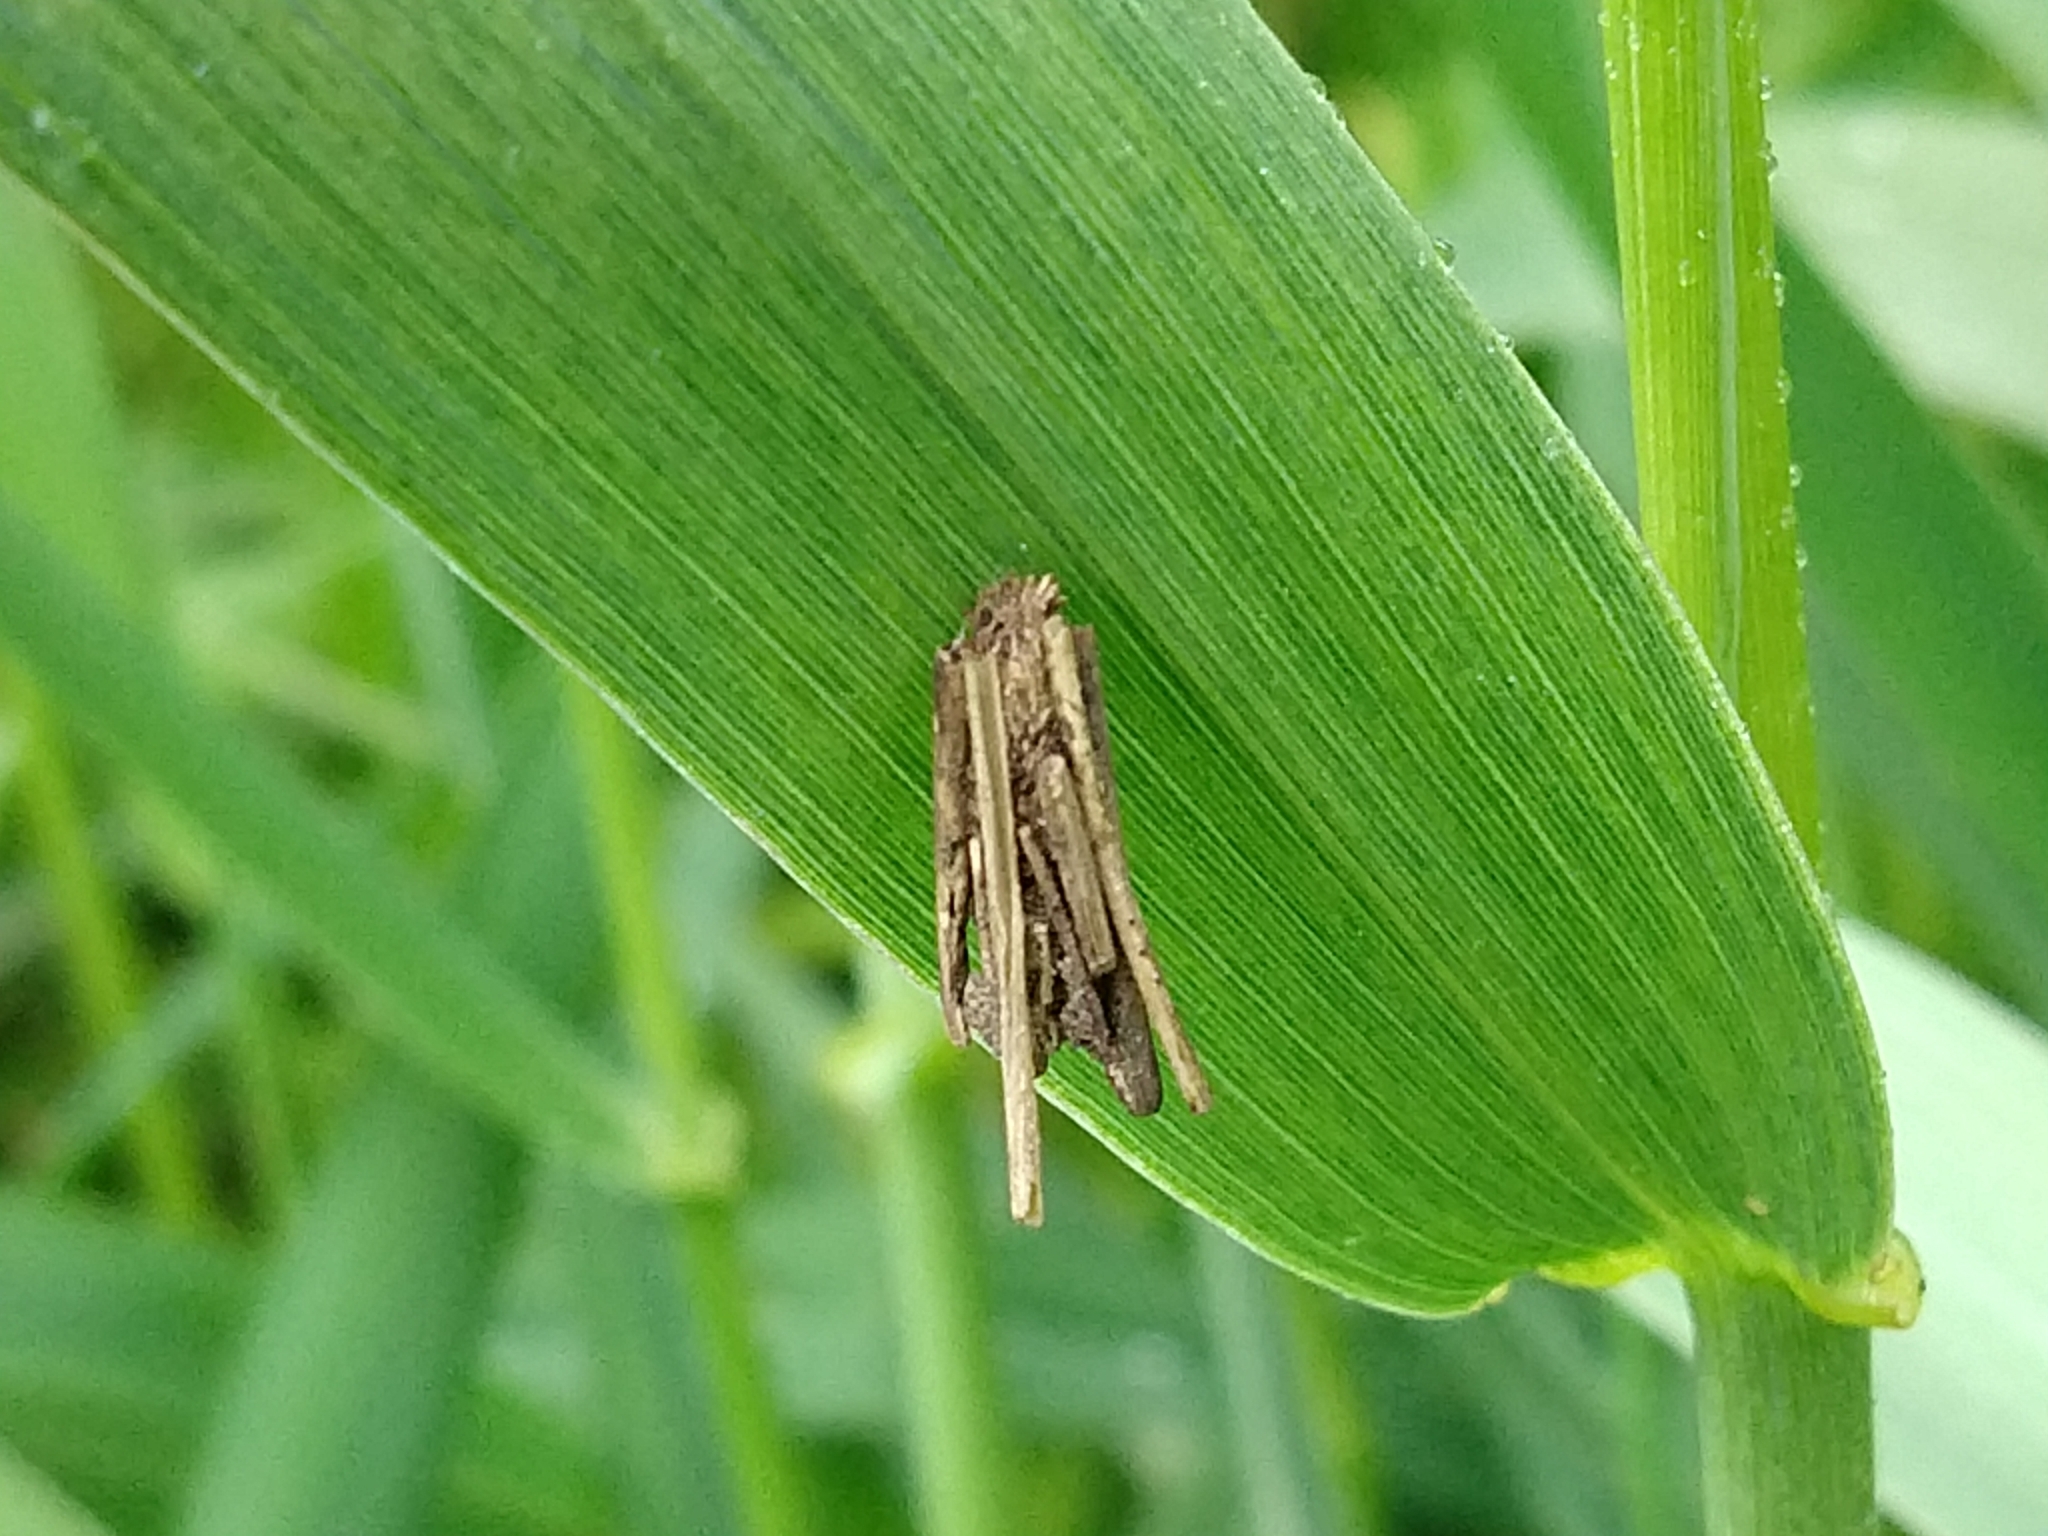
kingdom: Animalia
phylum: Arthropoda
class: Insecta
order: Lepidoptera
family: Psychidae
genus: Psyche
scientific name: Psyche casta
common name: Common sweep
